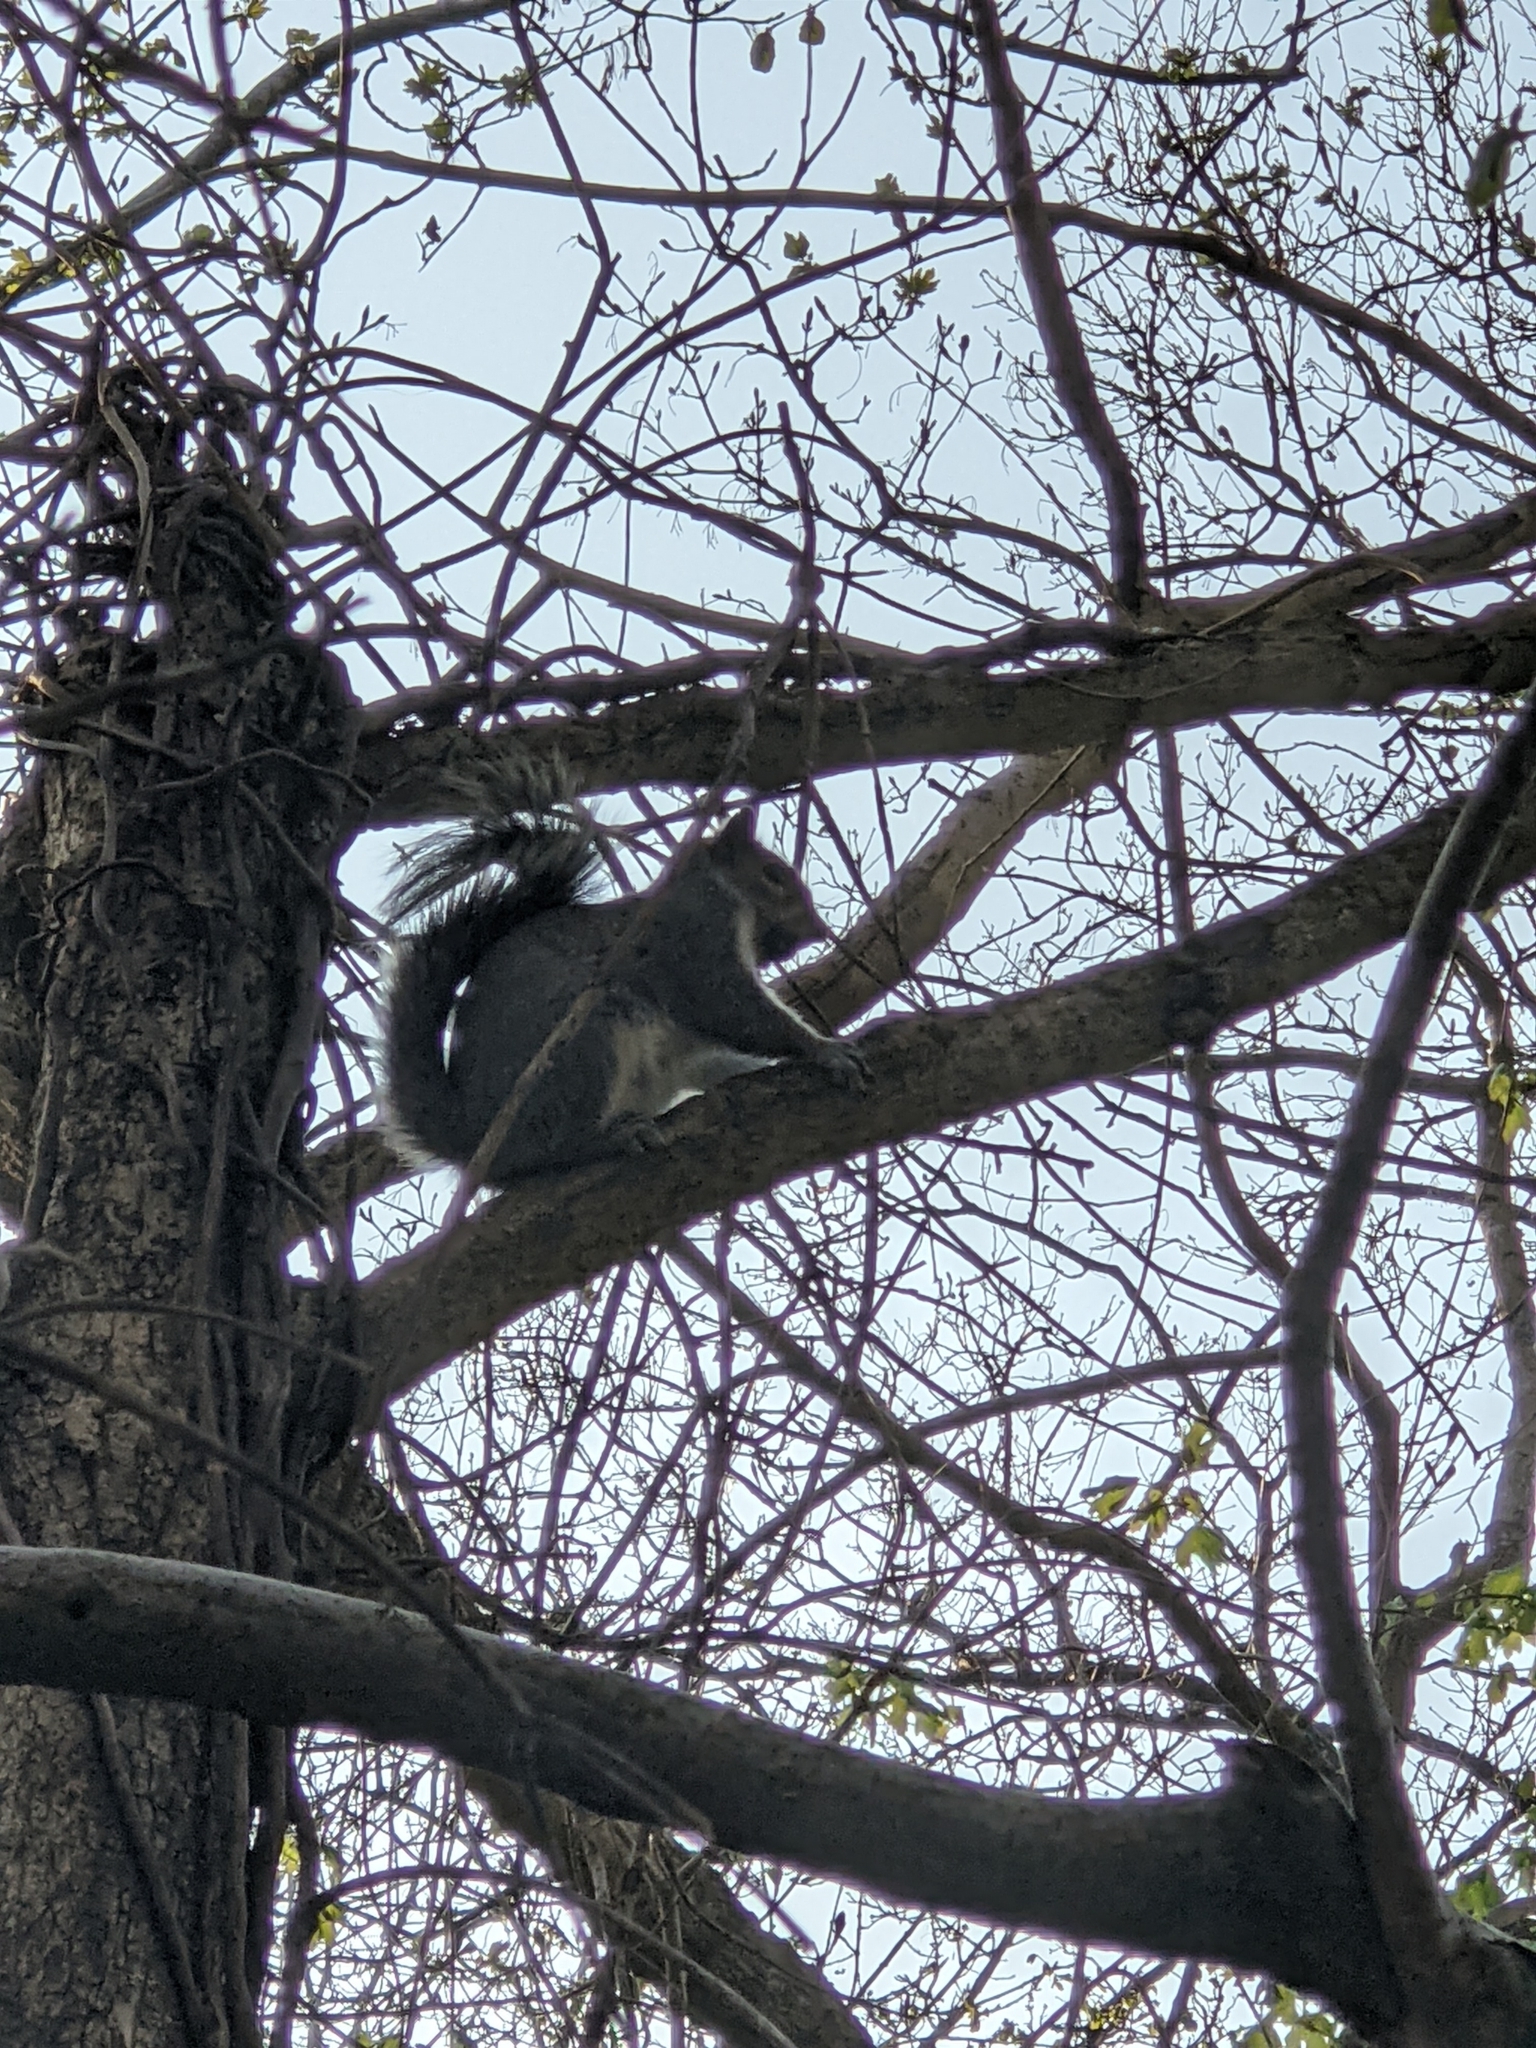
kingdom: Animalia
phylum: Chordata
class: Mammalia
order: Rodentia
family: Sciuridae
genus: Sciurus
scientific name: Sciurus carolinensis
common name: Eastern gray squirrel
